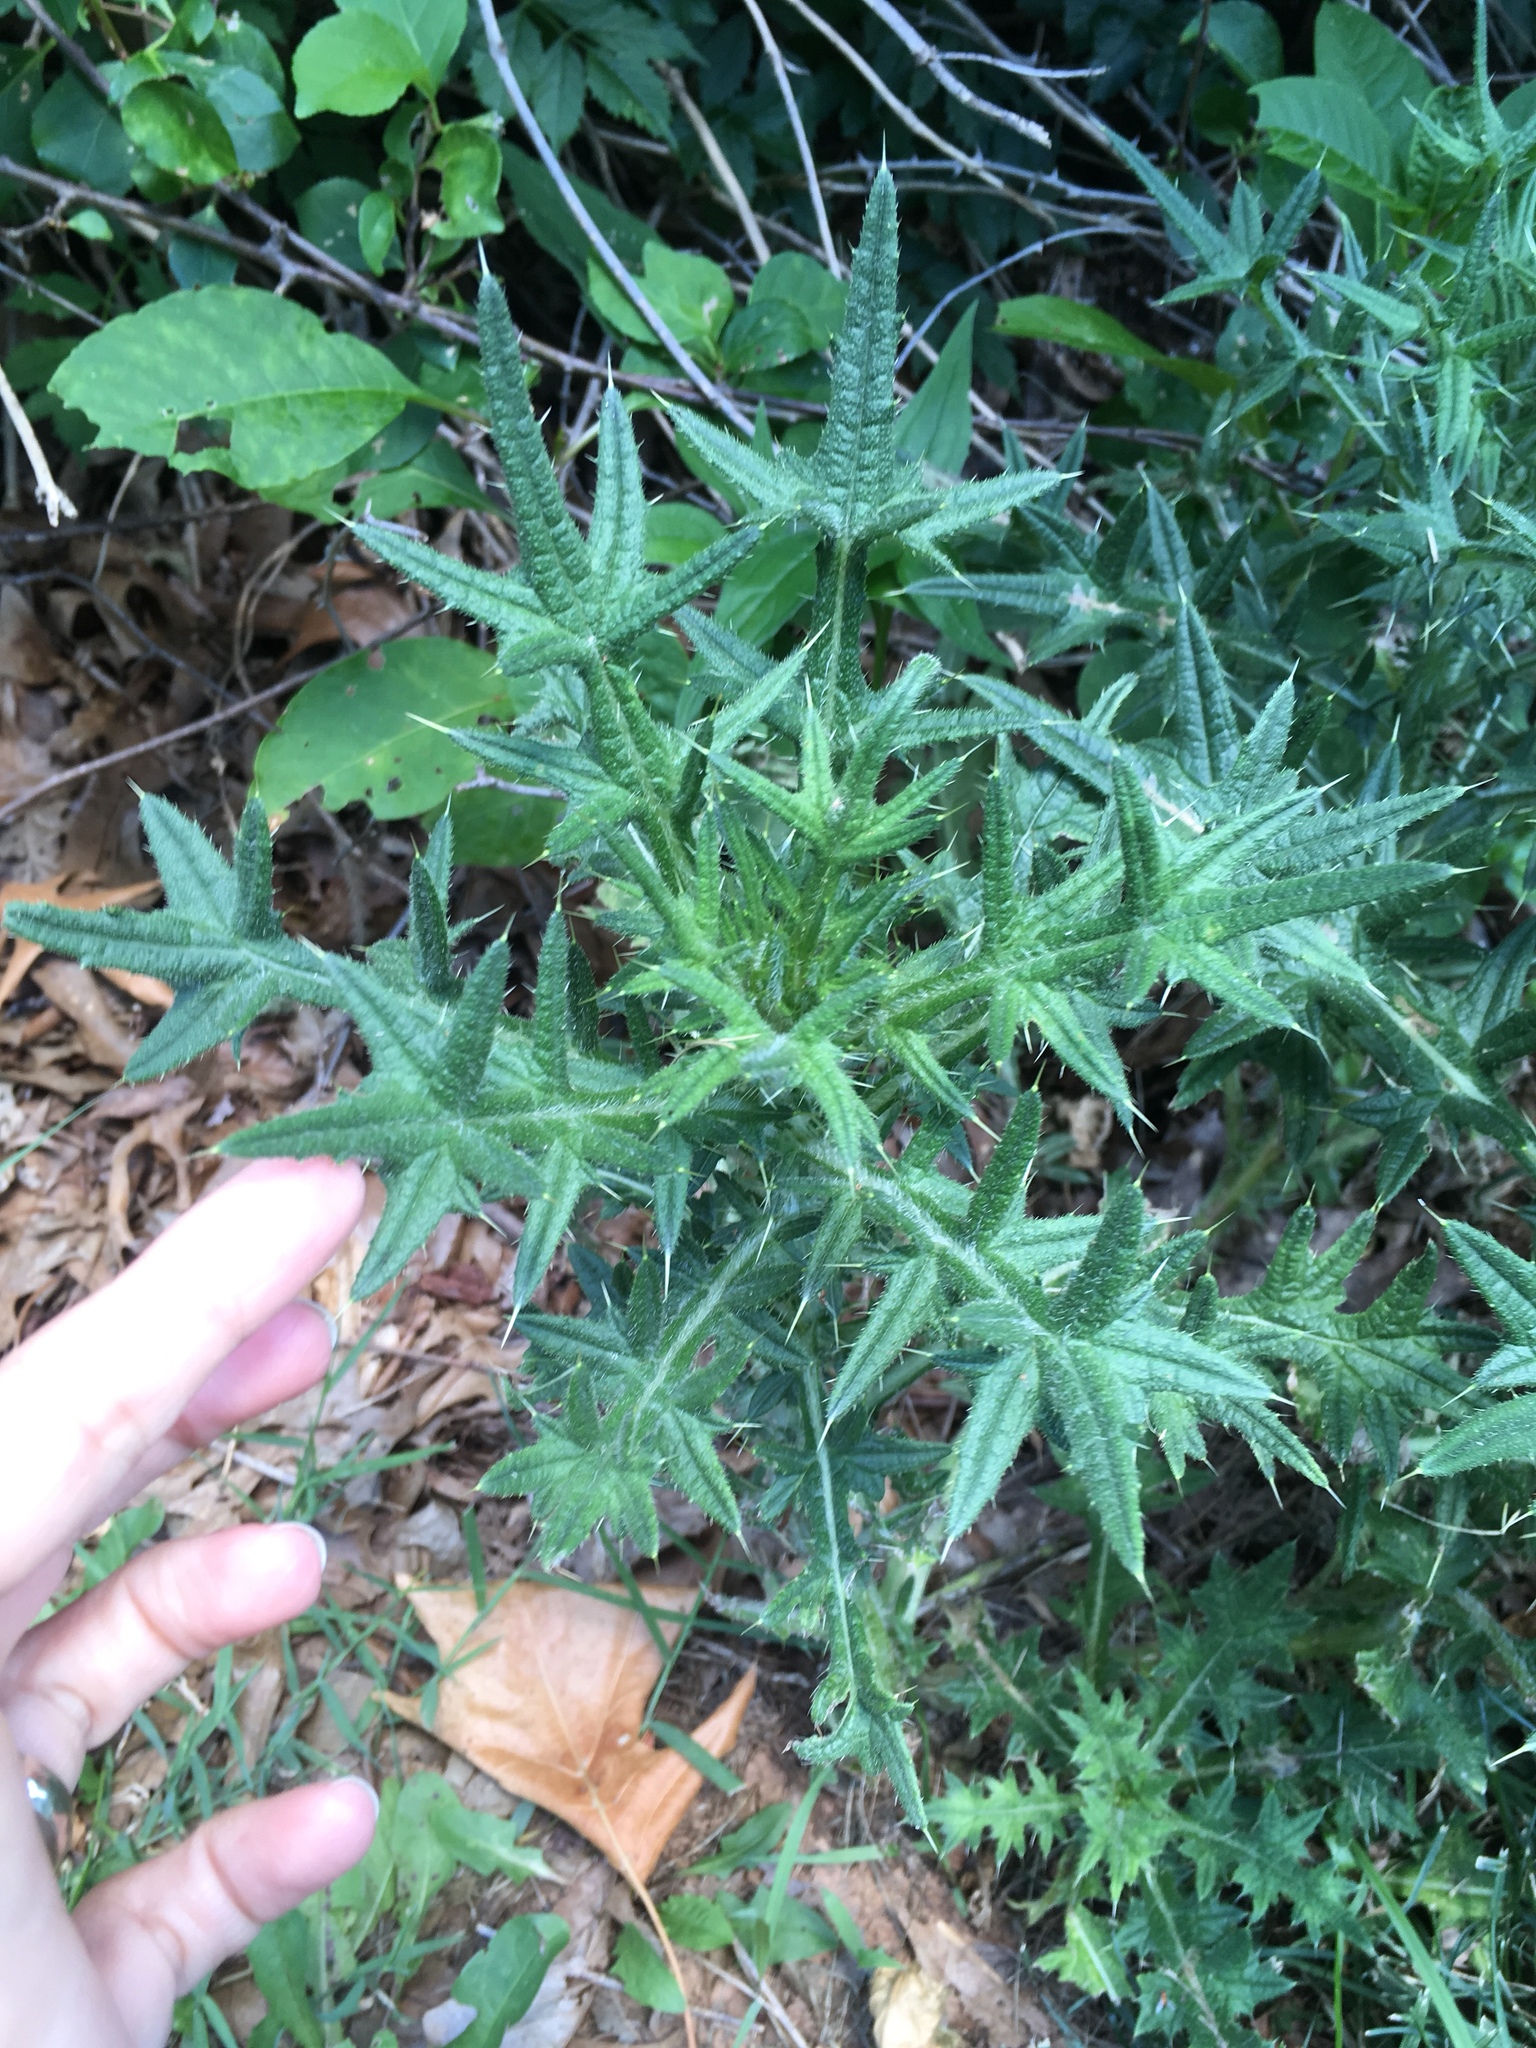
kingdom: Plantae
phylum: Tracheophyta
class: Magnoliopsida
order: Asterales
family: Asteraceae
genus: Cirsium
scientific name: Cirsium vulgare
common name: Bull thistle
